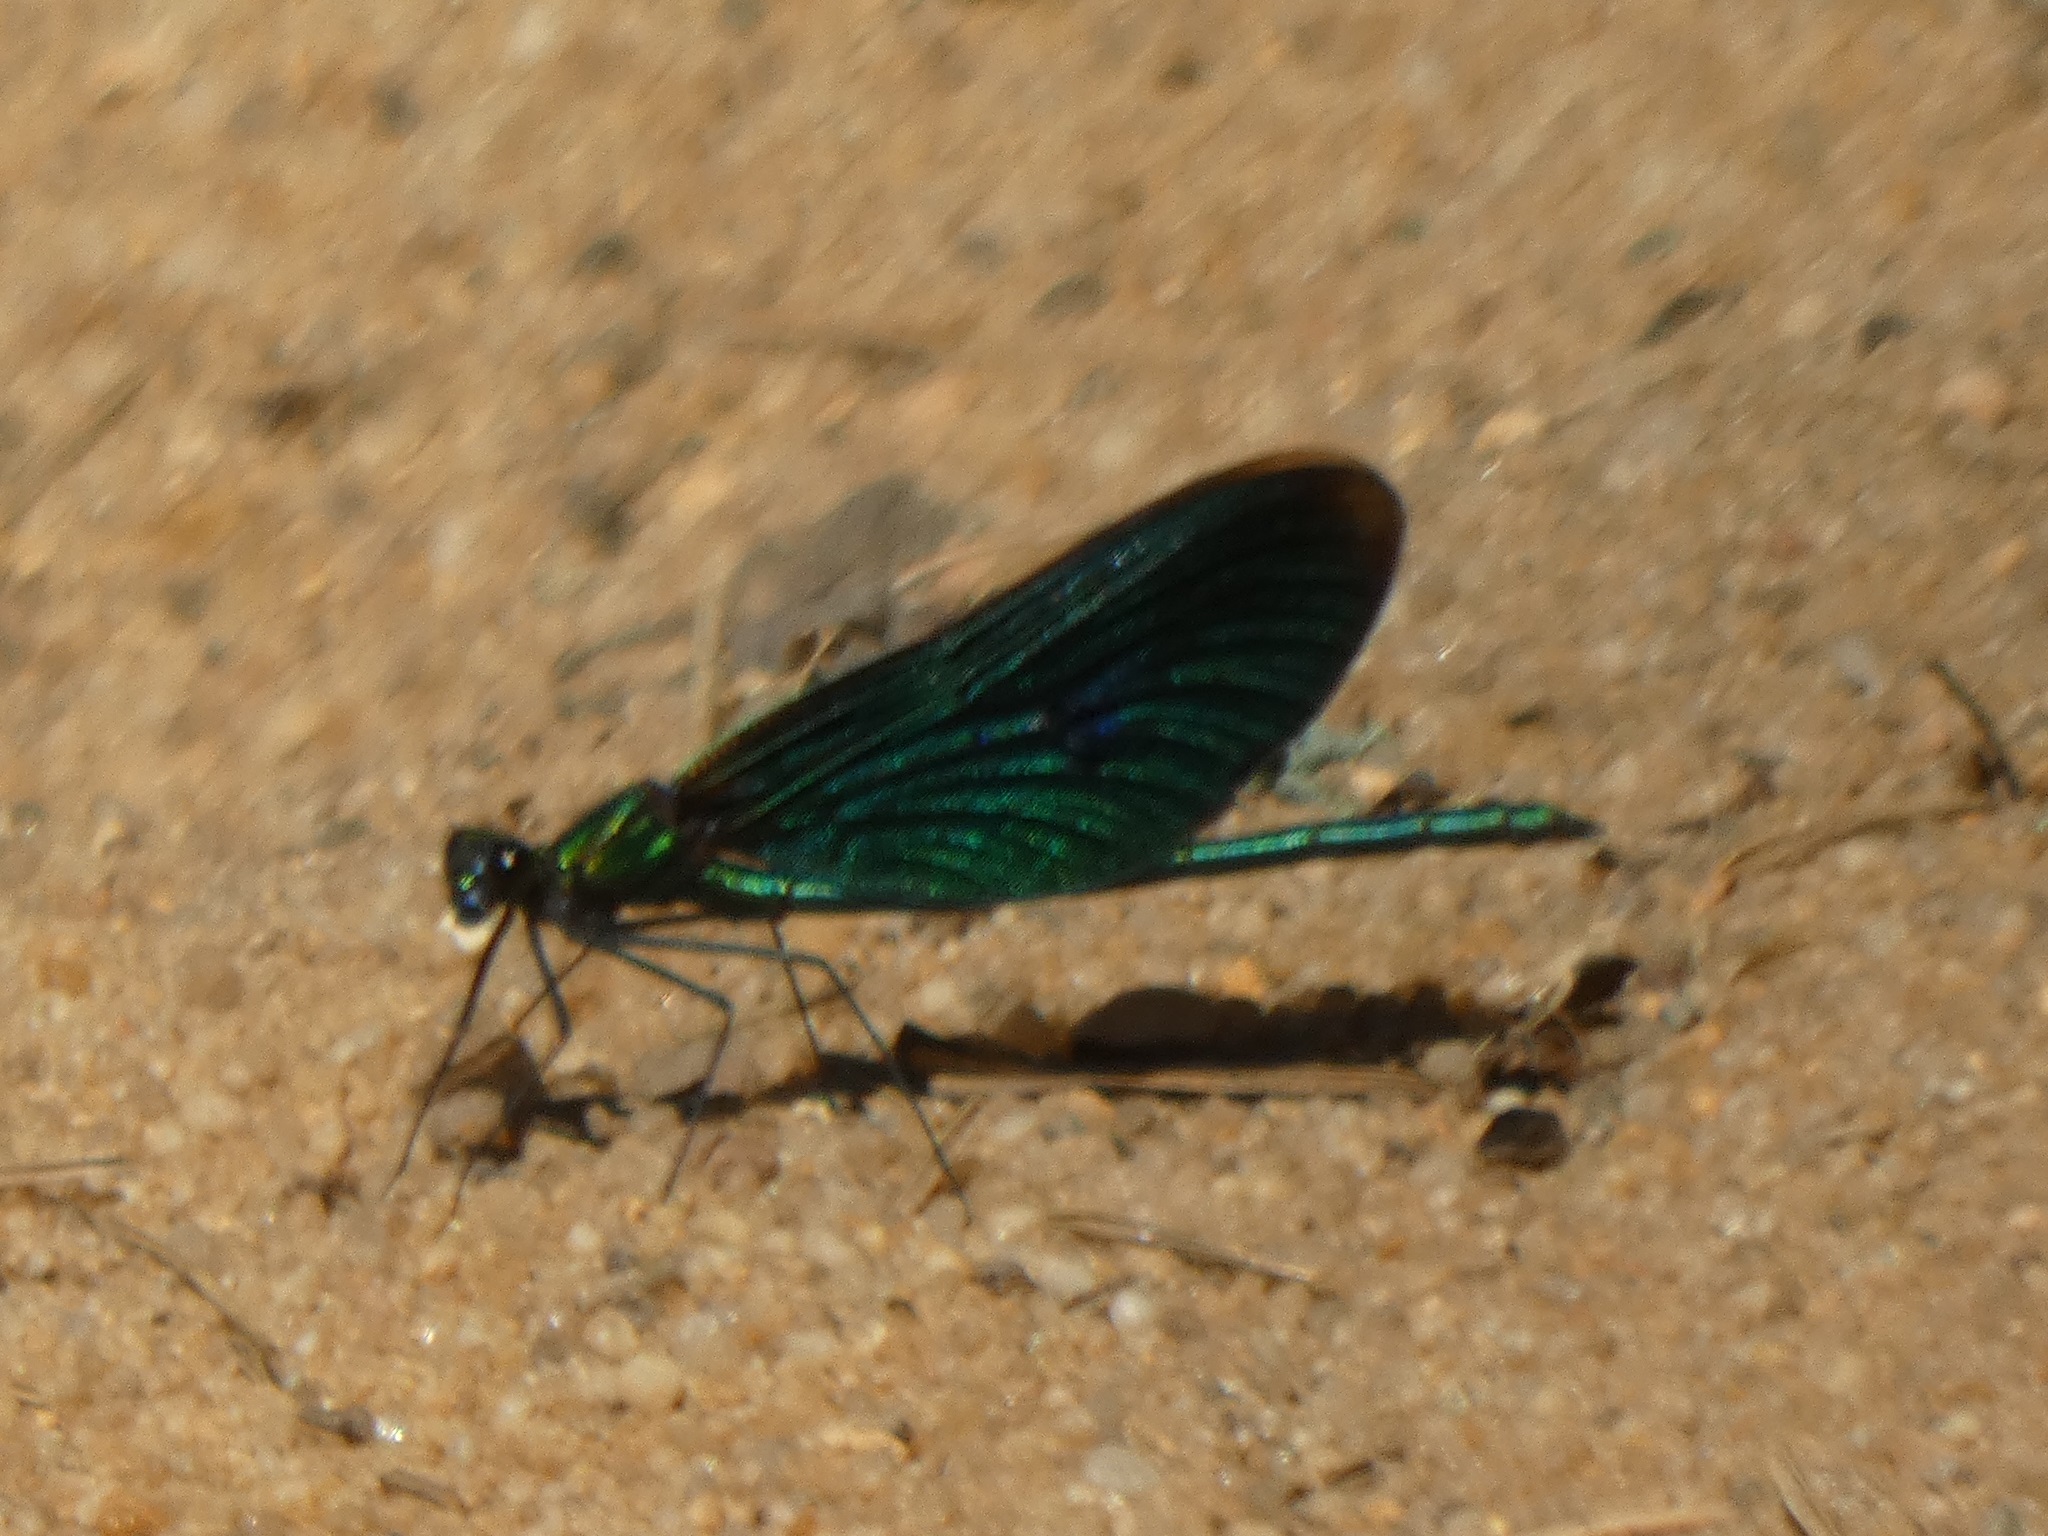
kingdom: Animalia
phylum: Arthropoda
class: Insecta
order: Odonata
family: Calopterygidae
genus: Calopteryx
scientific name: Calopteryx virgo
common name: Beautiful demoiselle
